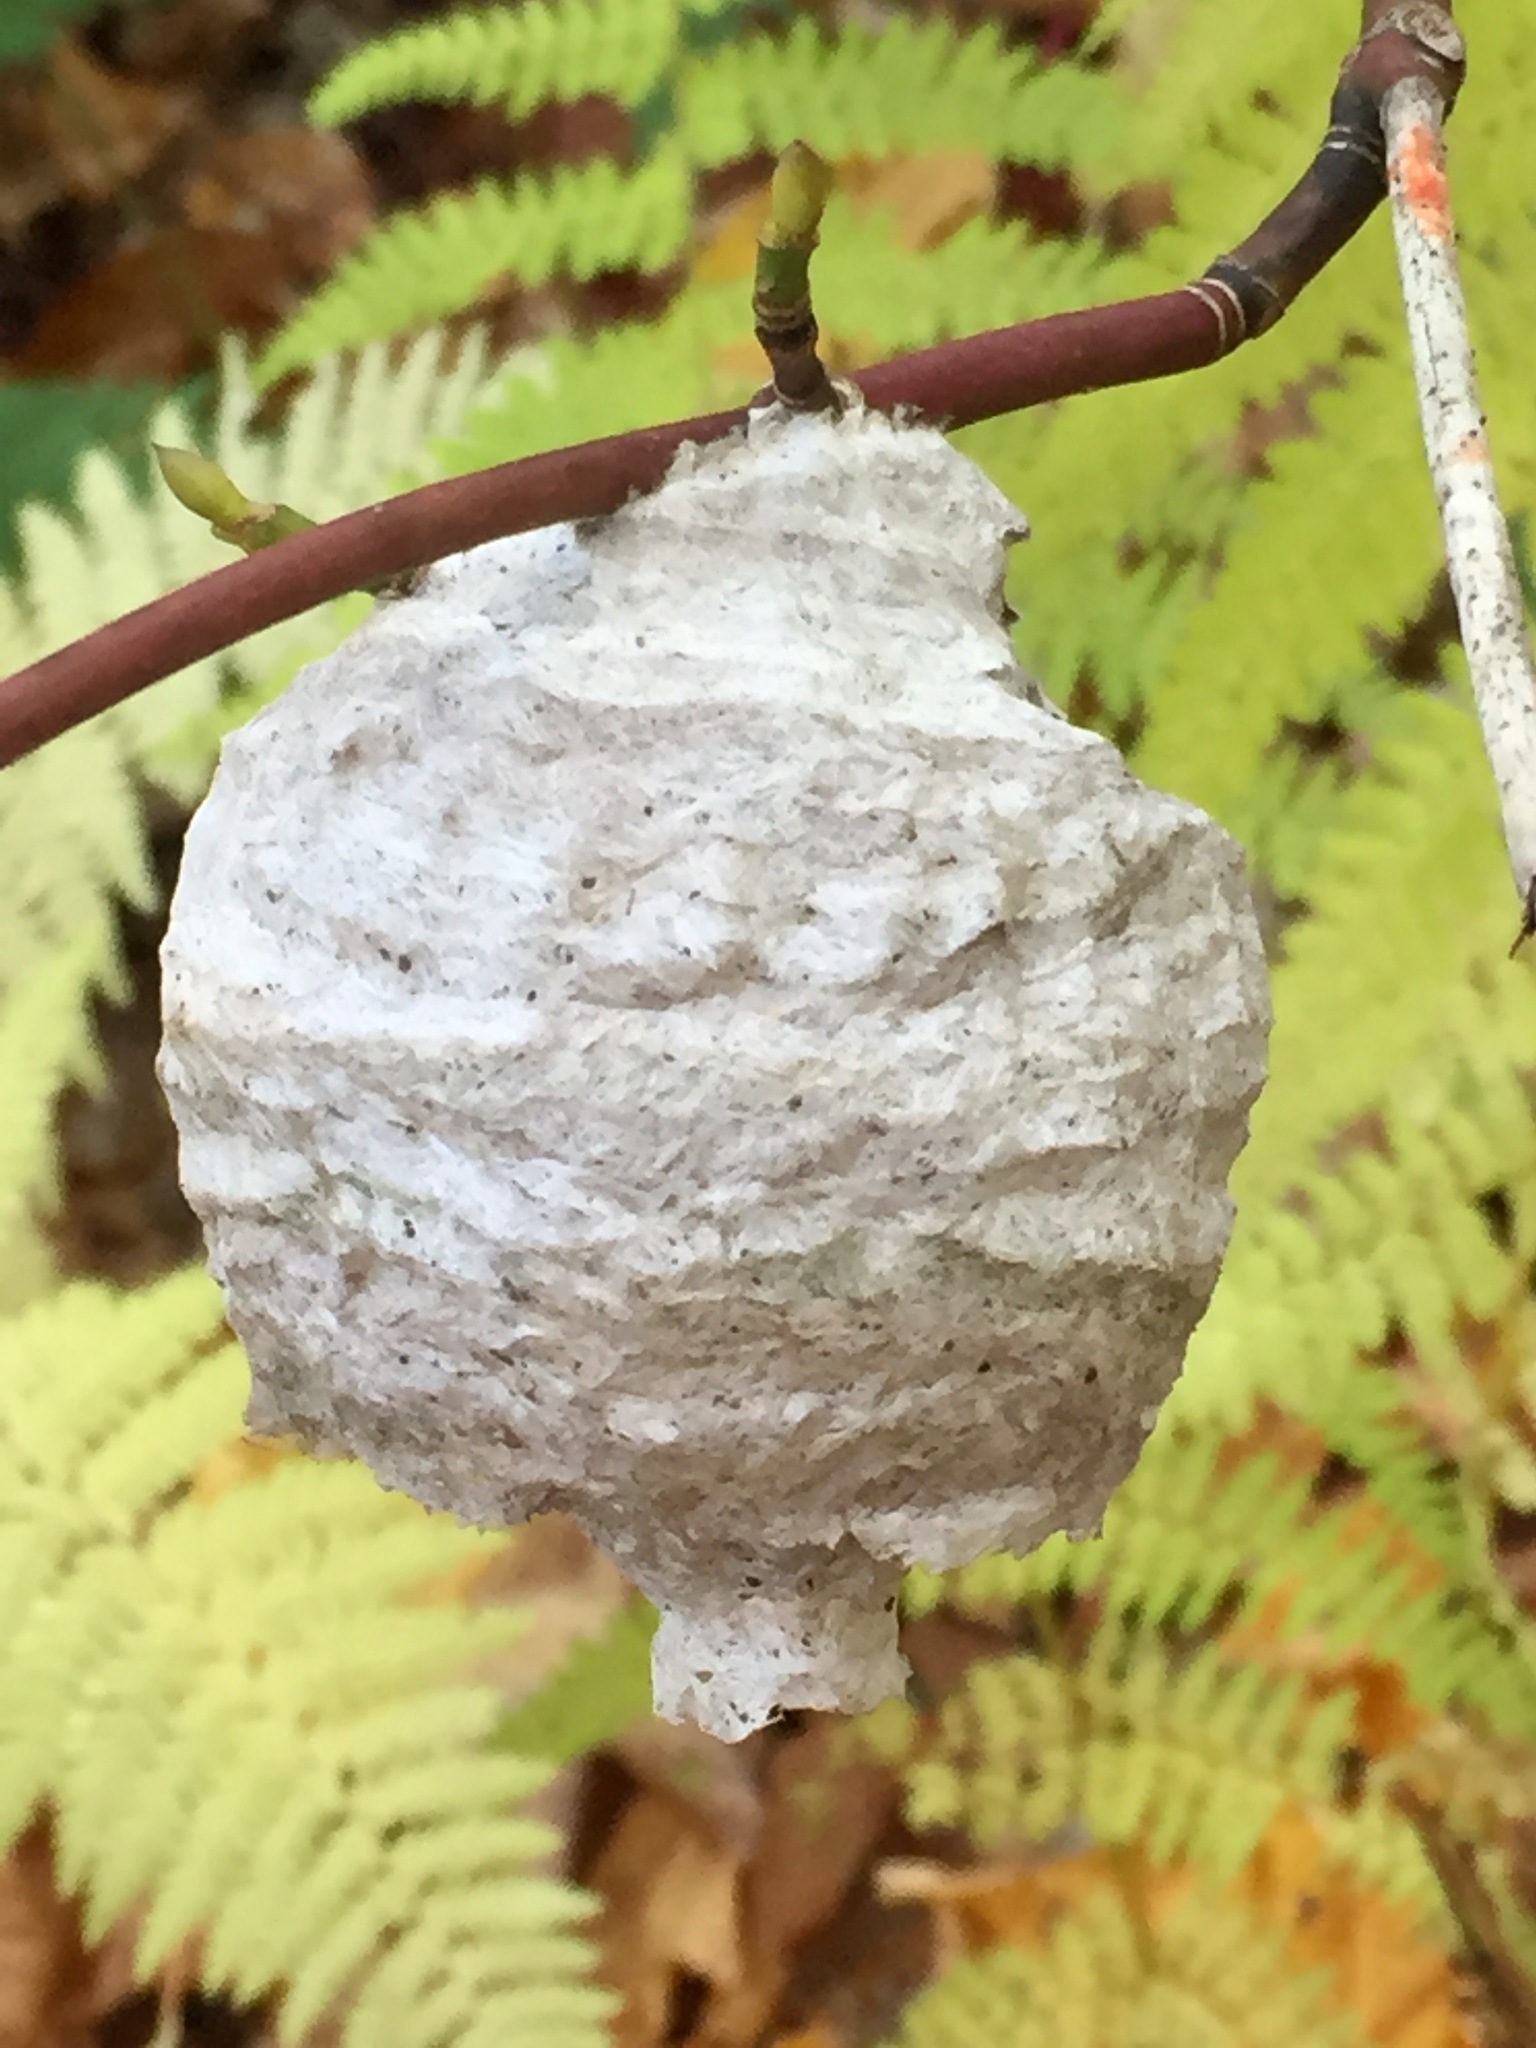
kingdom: Animalia
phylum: Arthropoda
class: Insecta
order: Hymenoptera
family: Vespidae
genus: Dolichovespula
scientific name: Dolichovespula
